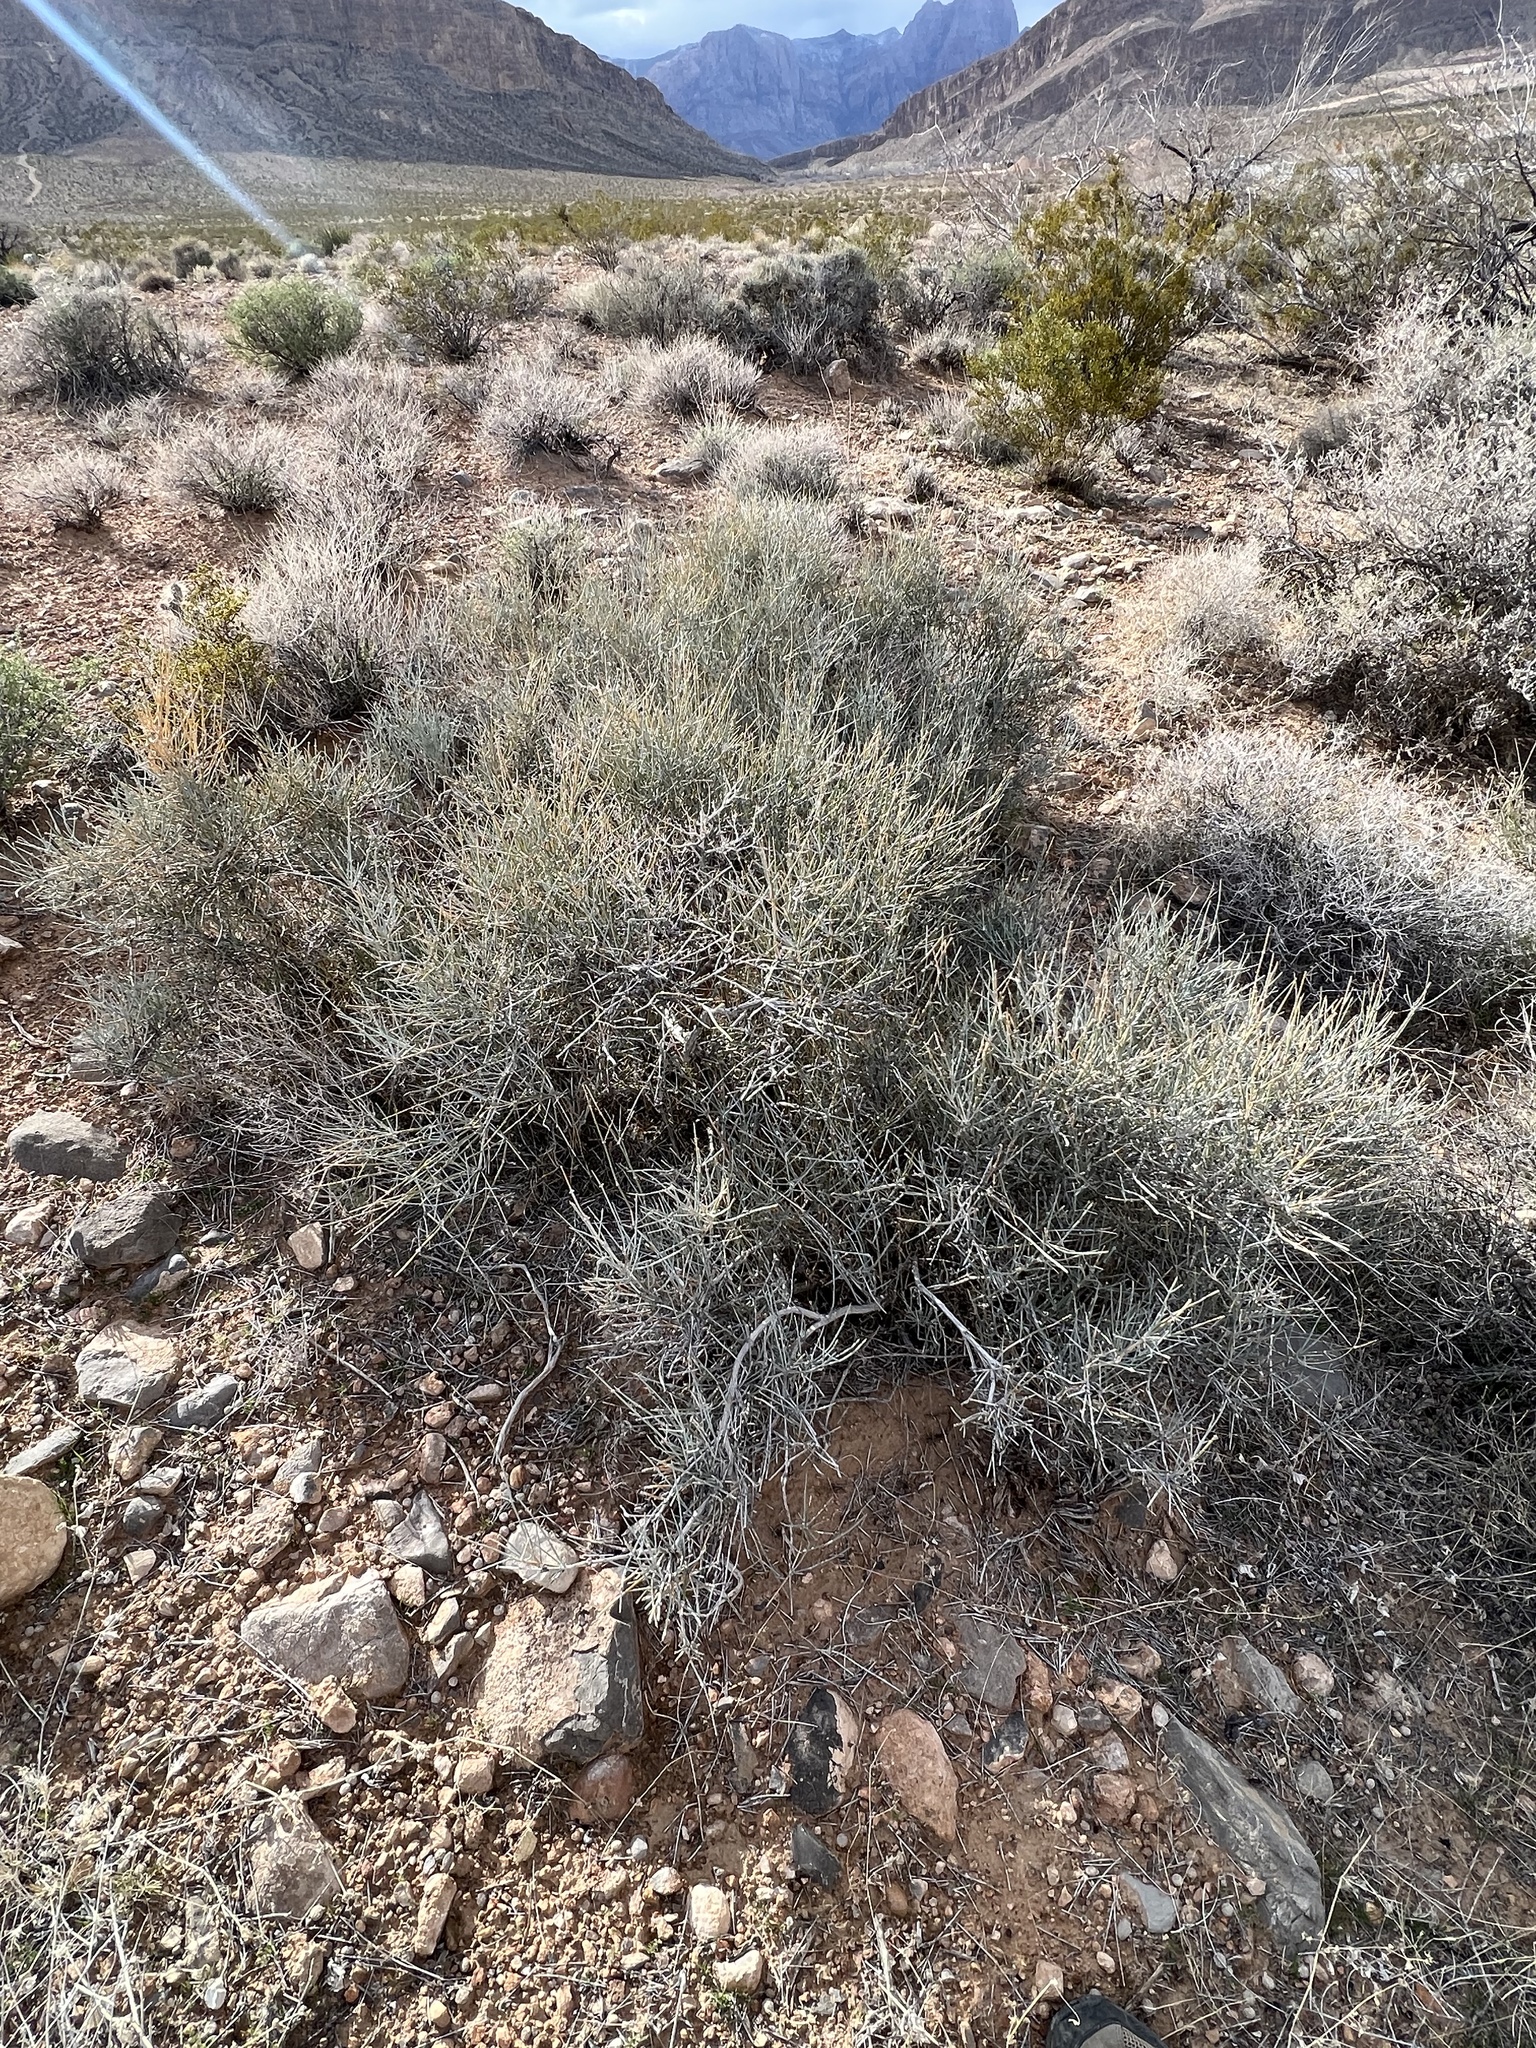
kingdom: Plantae
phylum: Tracheophyta
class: Gnetopsida
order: Ephedrales
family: Ephedraceae
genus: Ephedra
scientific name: Ephedra nevadensis
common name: Gray ephedra
